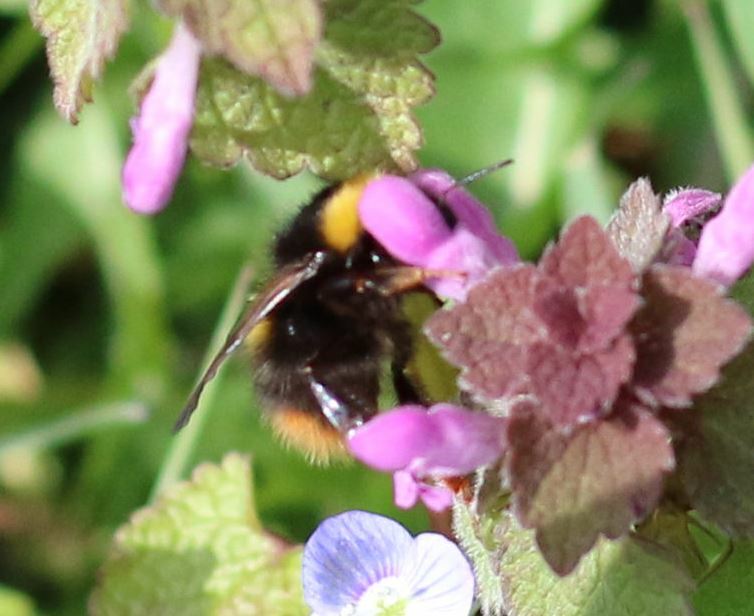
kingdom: Animalia
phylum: Arthropoda
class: Insecta
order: Hymenoptera
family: Apidae
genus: Bombus
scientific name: Bombus pratorum
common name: Early humble-bee
